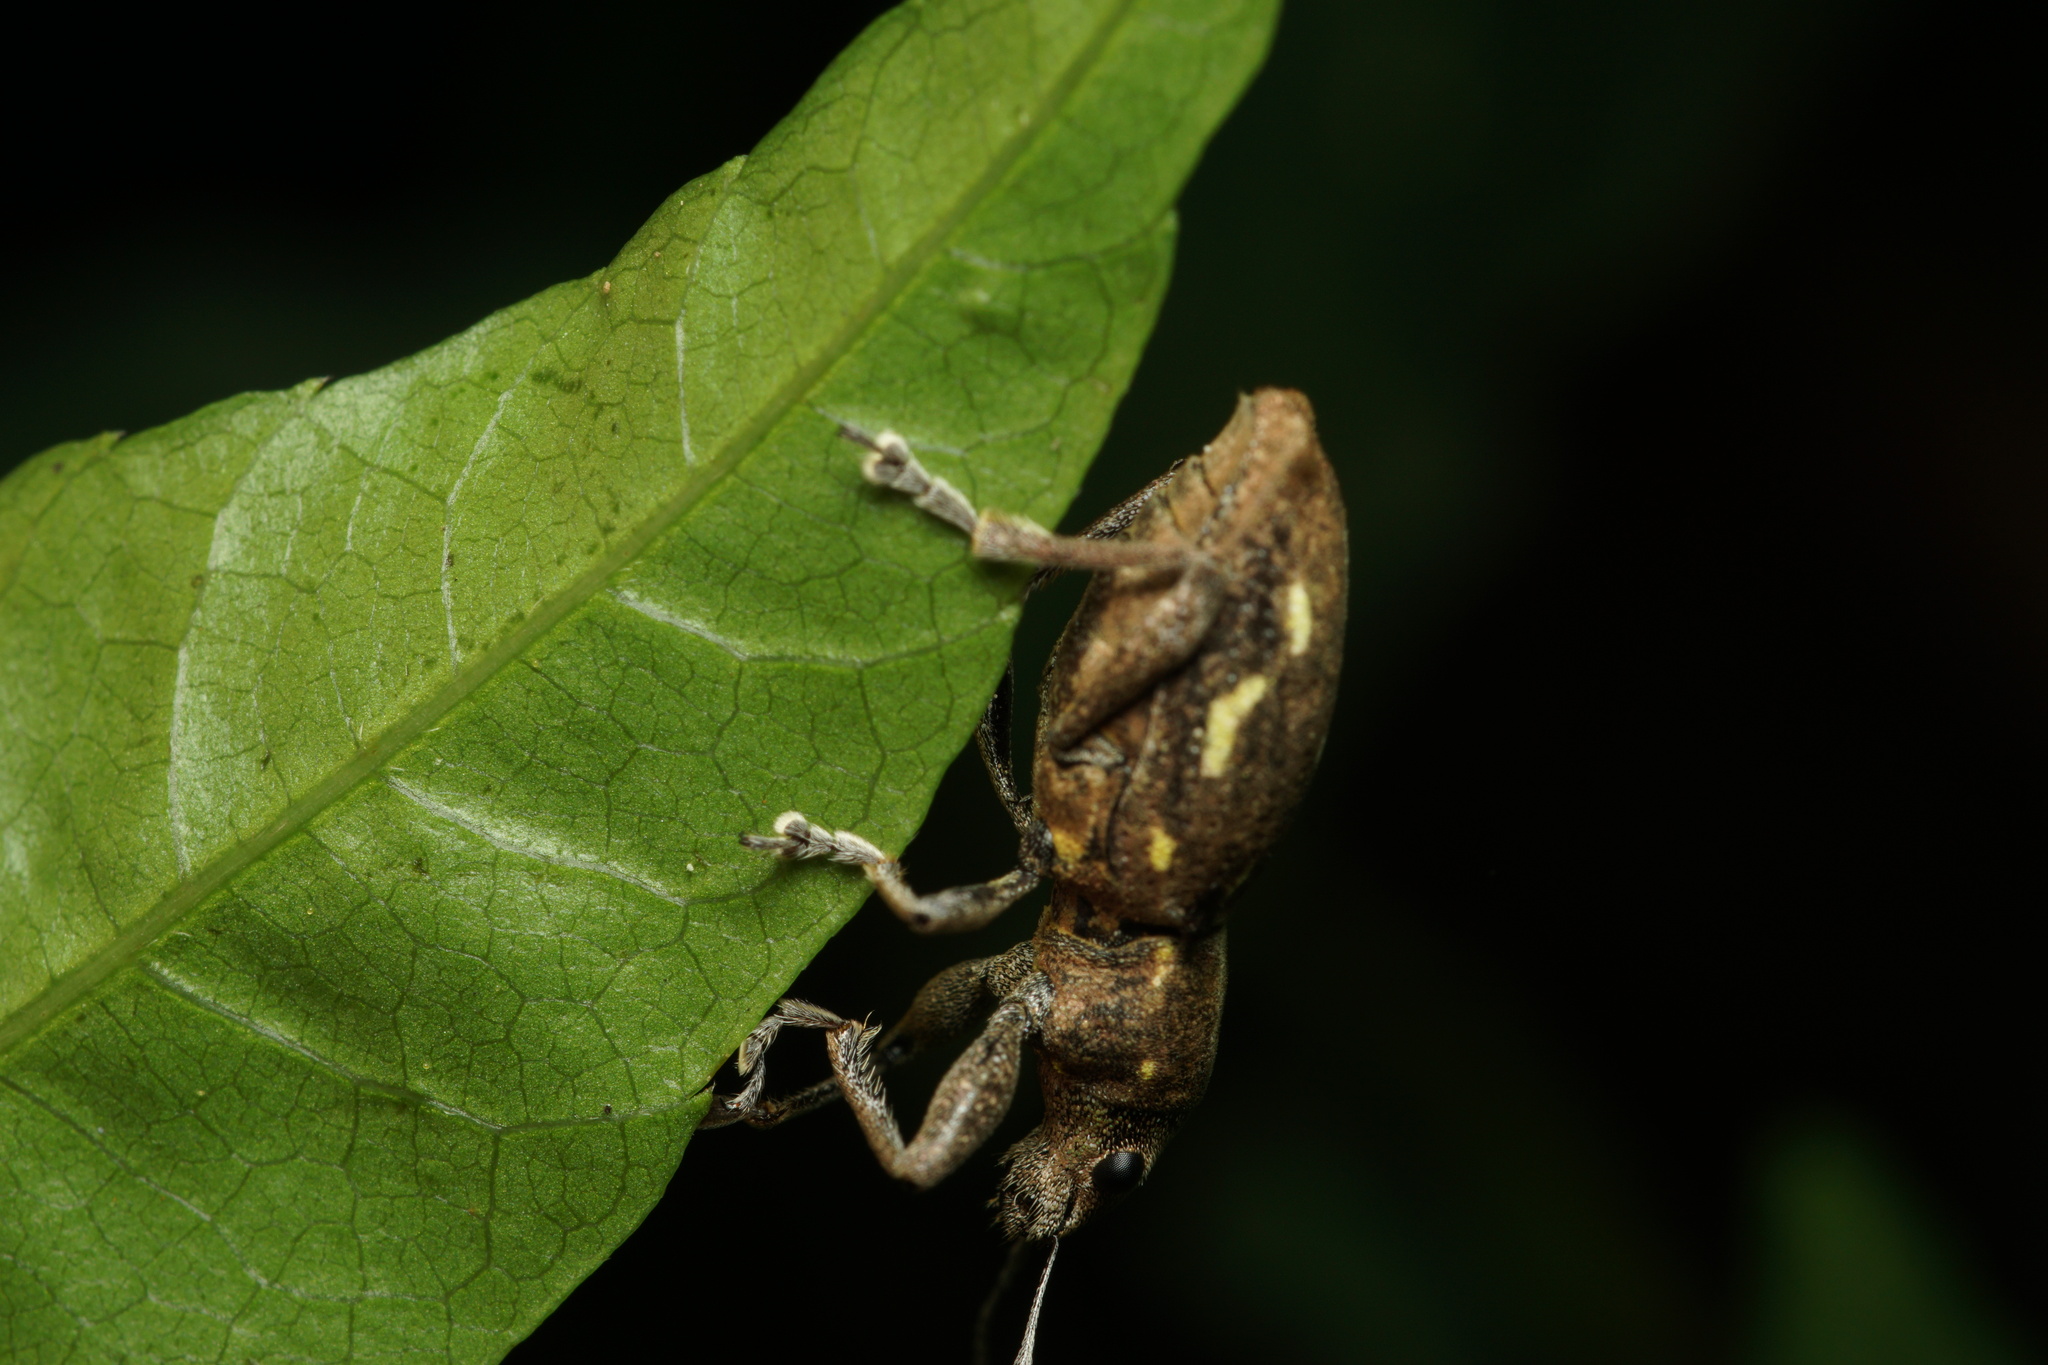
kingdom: Animalia
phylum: Arthropoda
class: Insecta
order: Coleoptera
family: Curculionidae
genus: Naupactus
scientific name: Naupactus dissimilis
